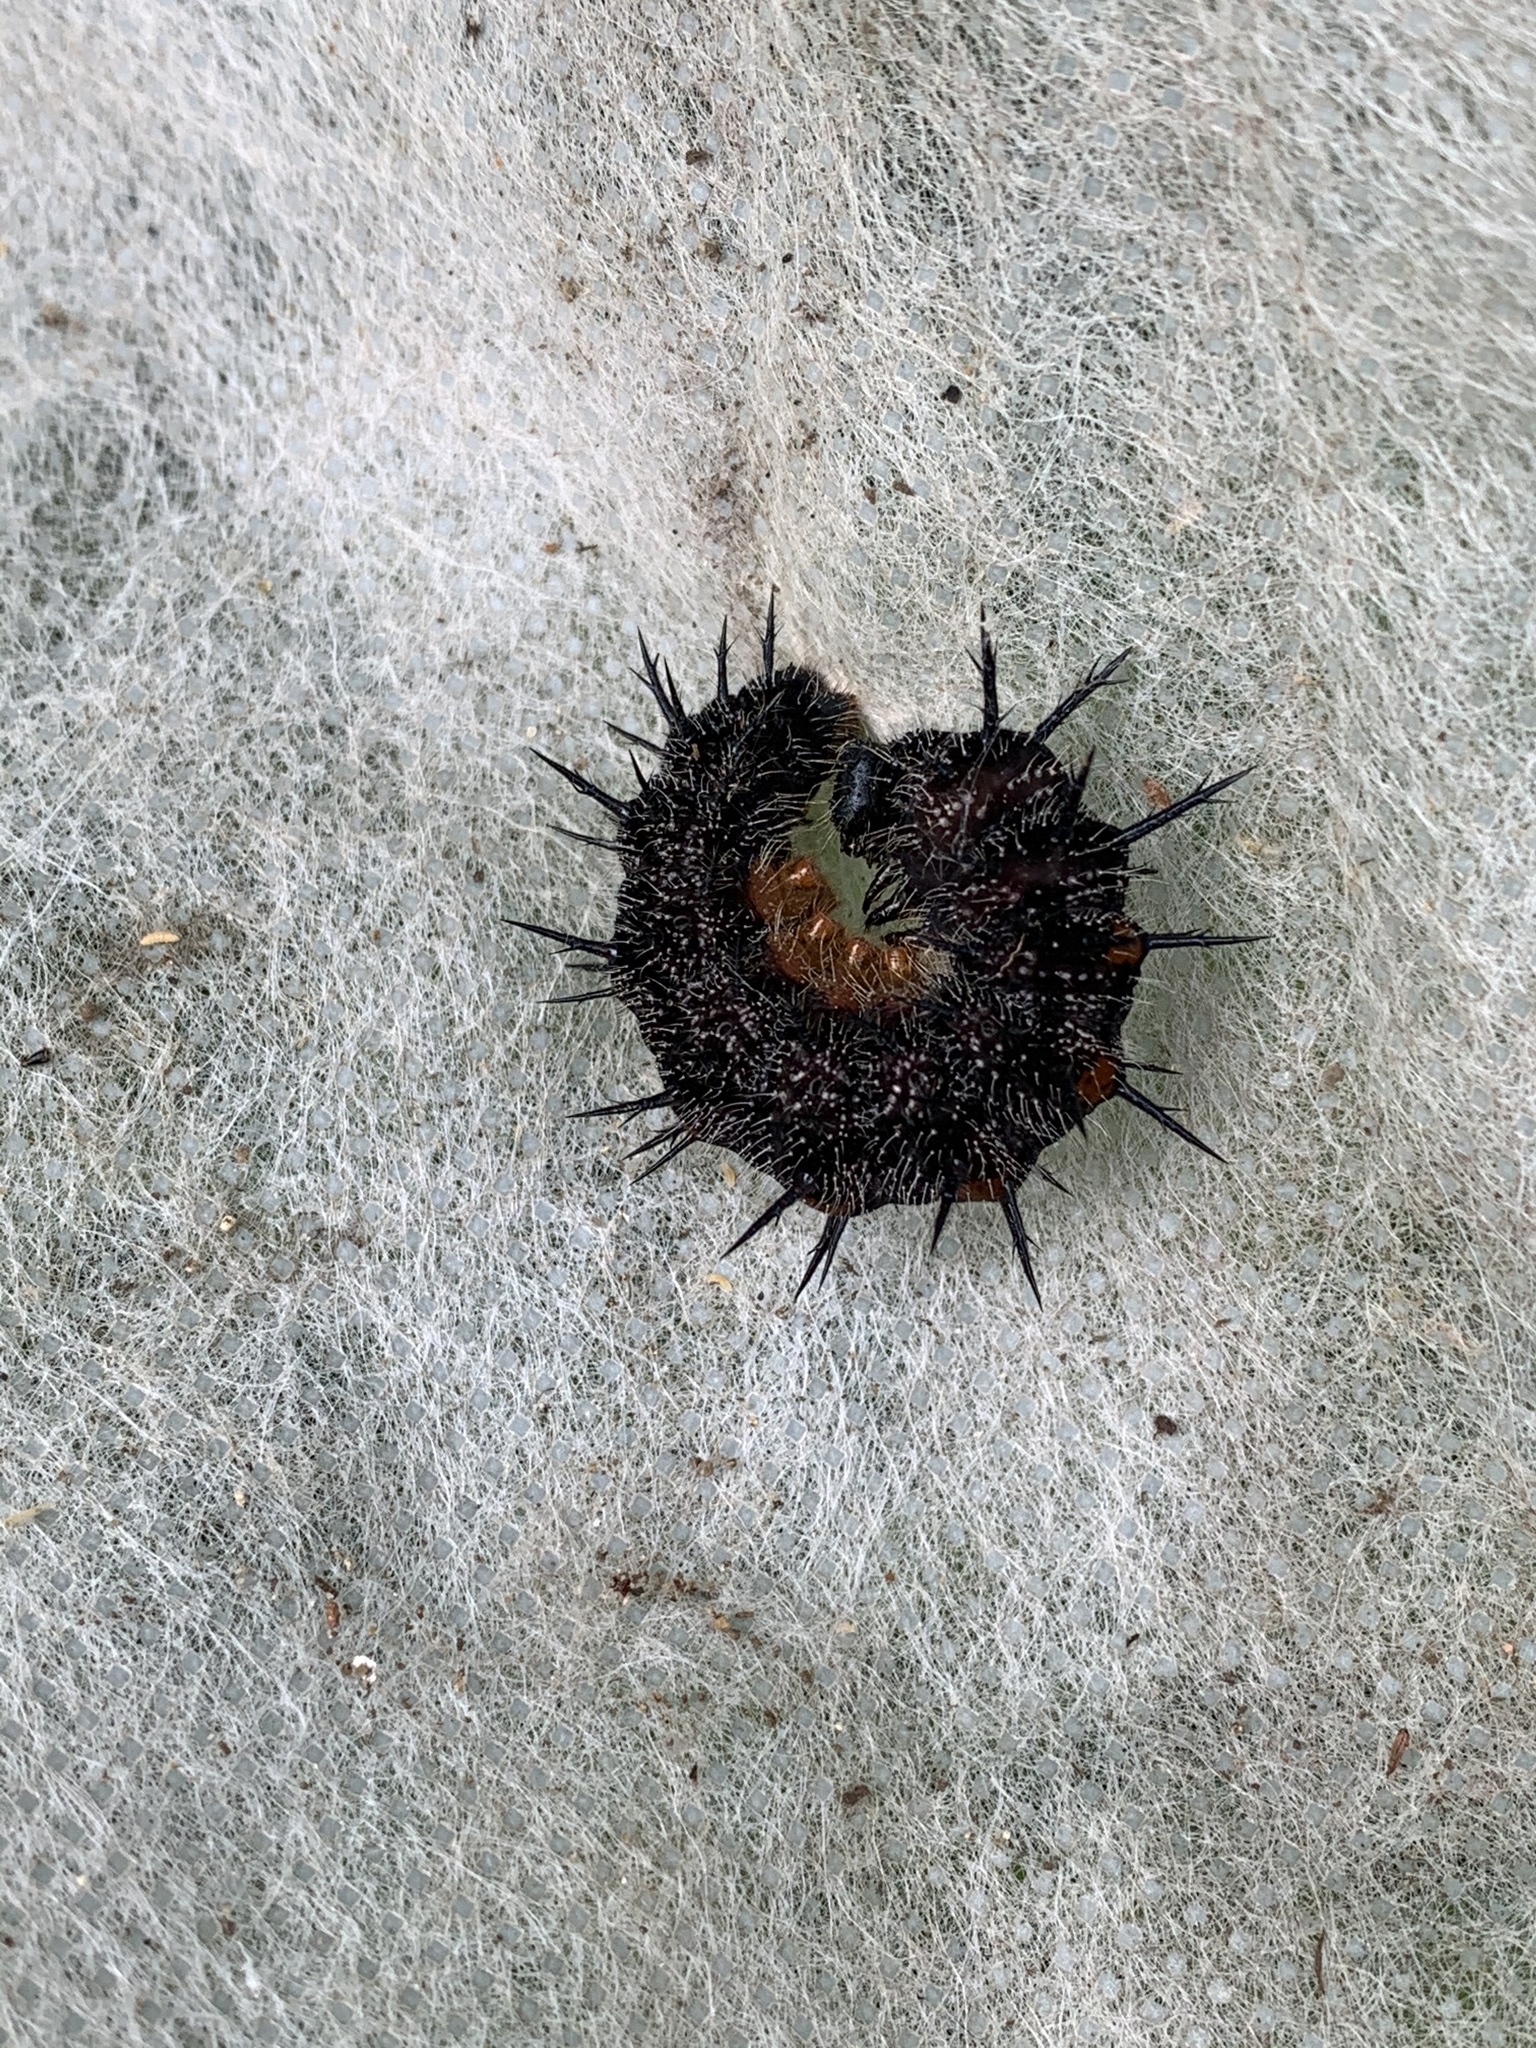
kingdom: Animalia
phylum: Arthropoda
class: Insecta
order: Lepidoptera
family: Nymphalidae
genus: Nymphalis
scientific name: Nymphalis antiopa
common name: Camberwell beauty
